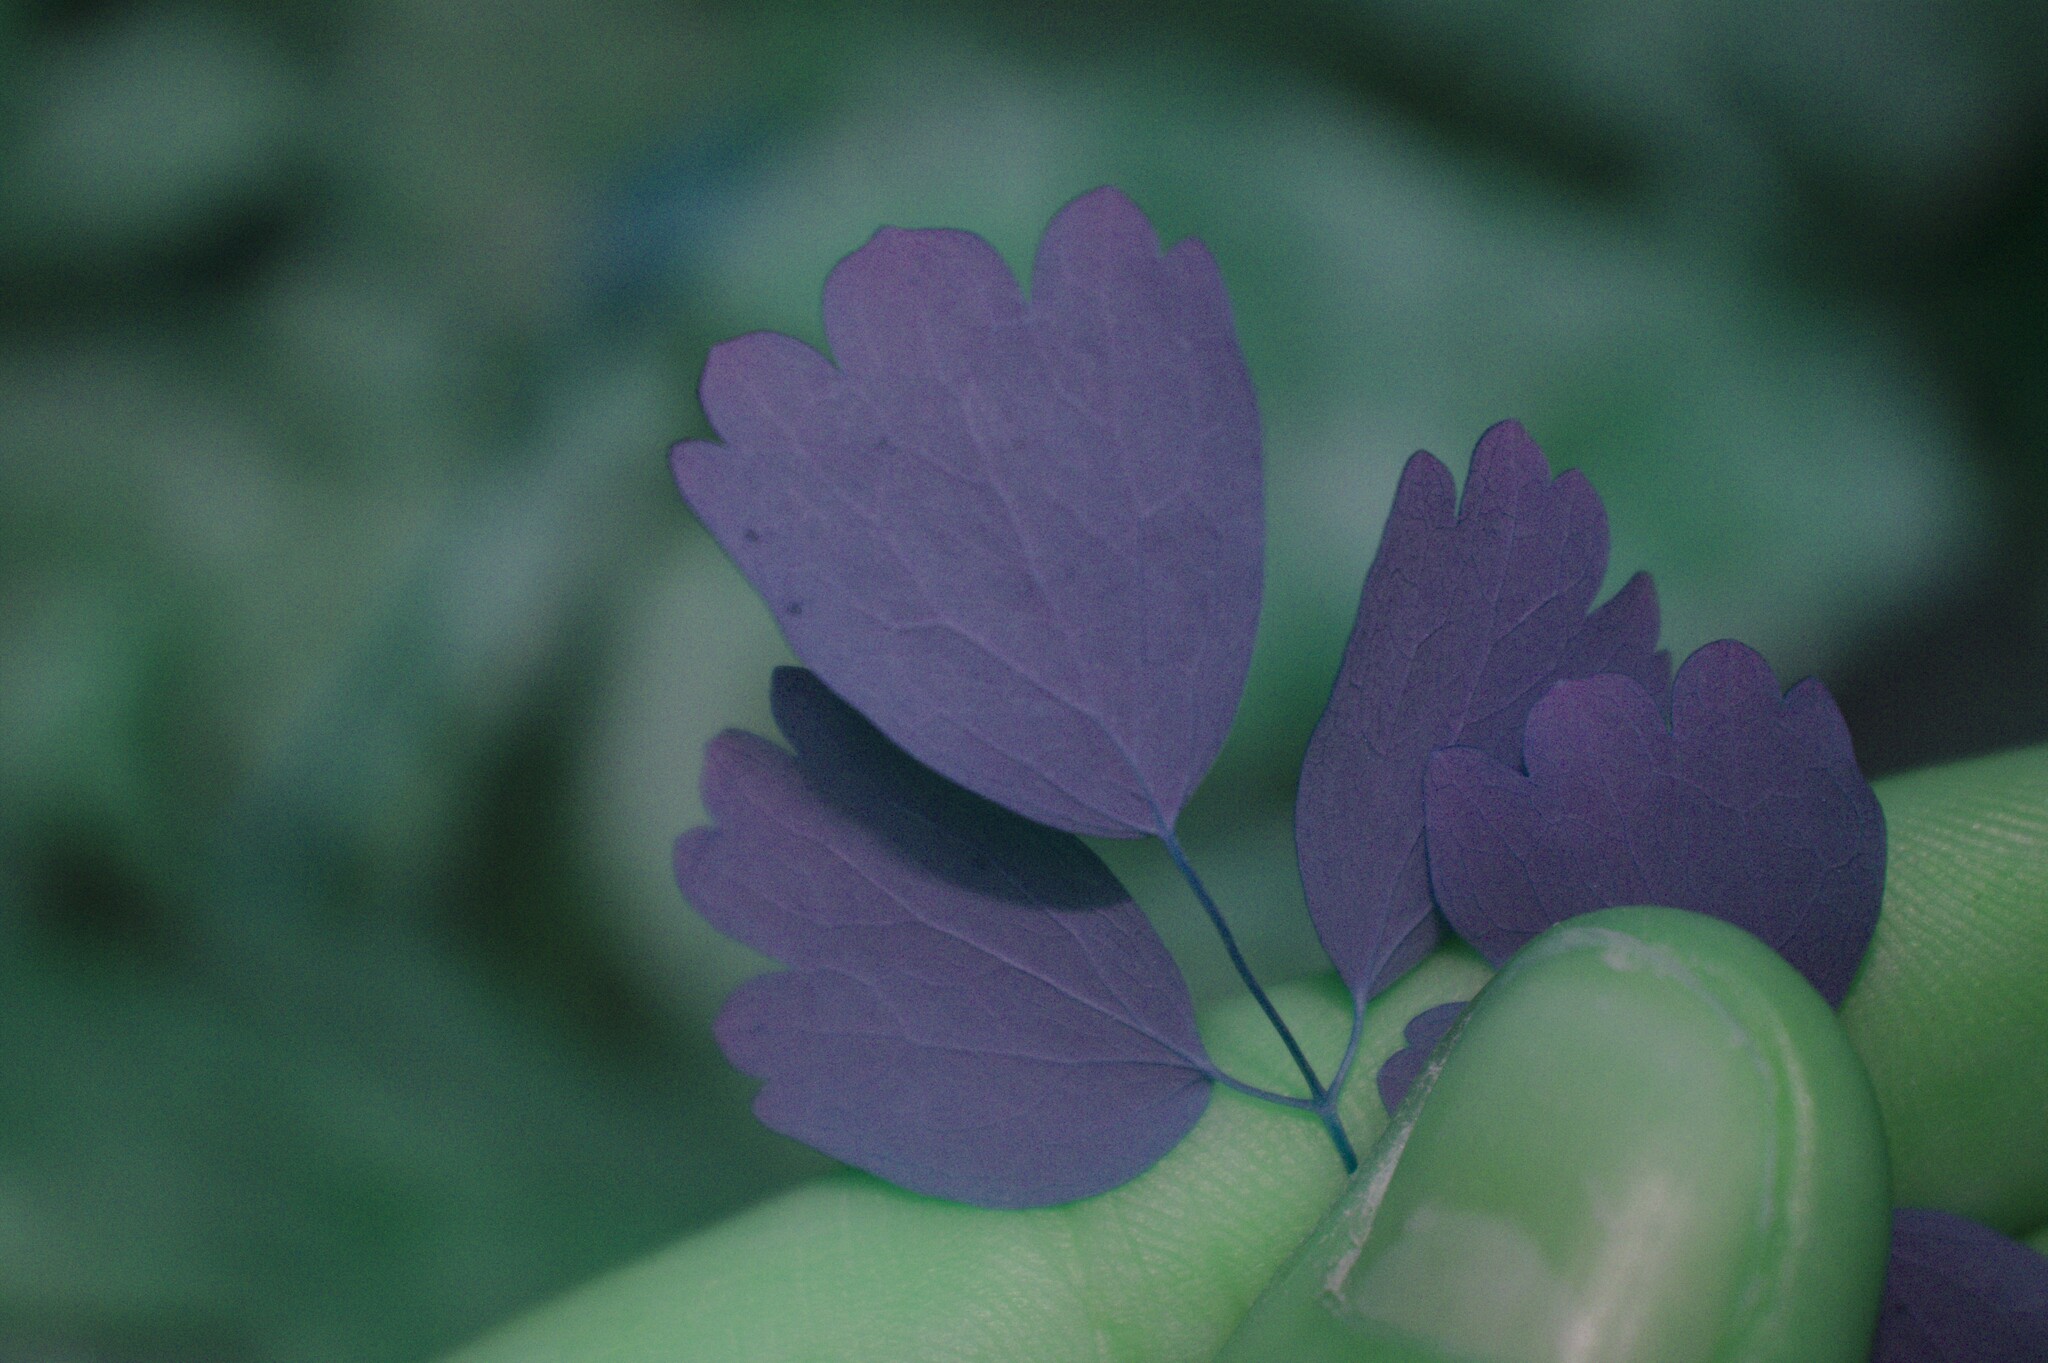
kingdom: Plantae
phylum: Tracheophyta
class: Magnoliopsida
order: Ranunculales
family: Ranunculaceae
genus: Thalictrum
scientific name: Thalictrum dioicum
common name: Early meadow-rue
